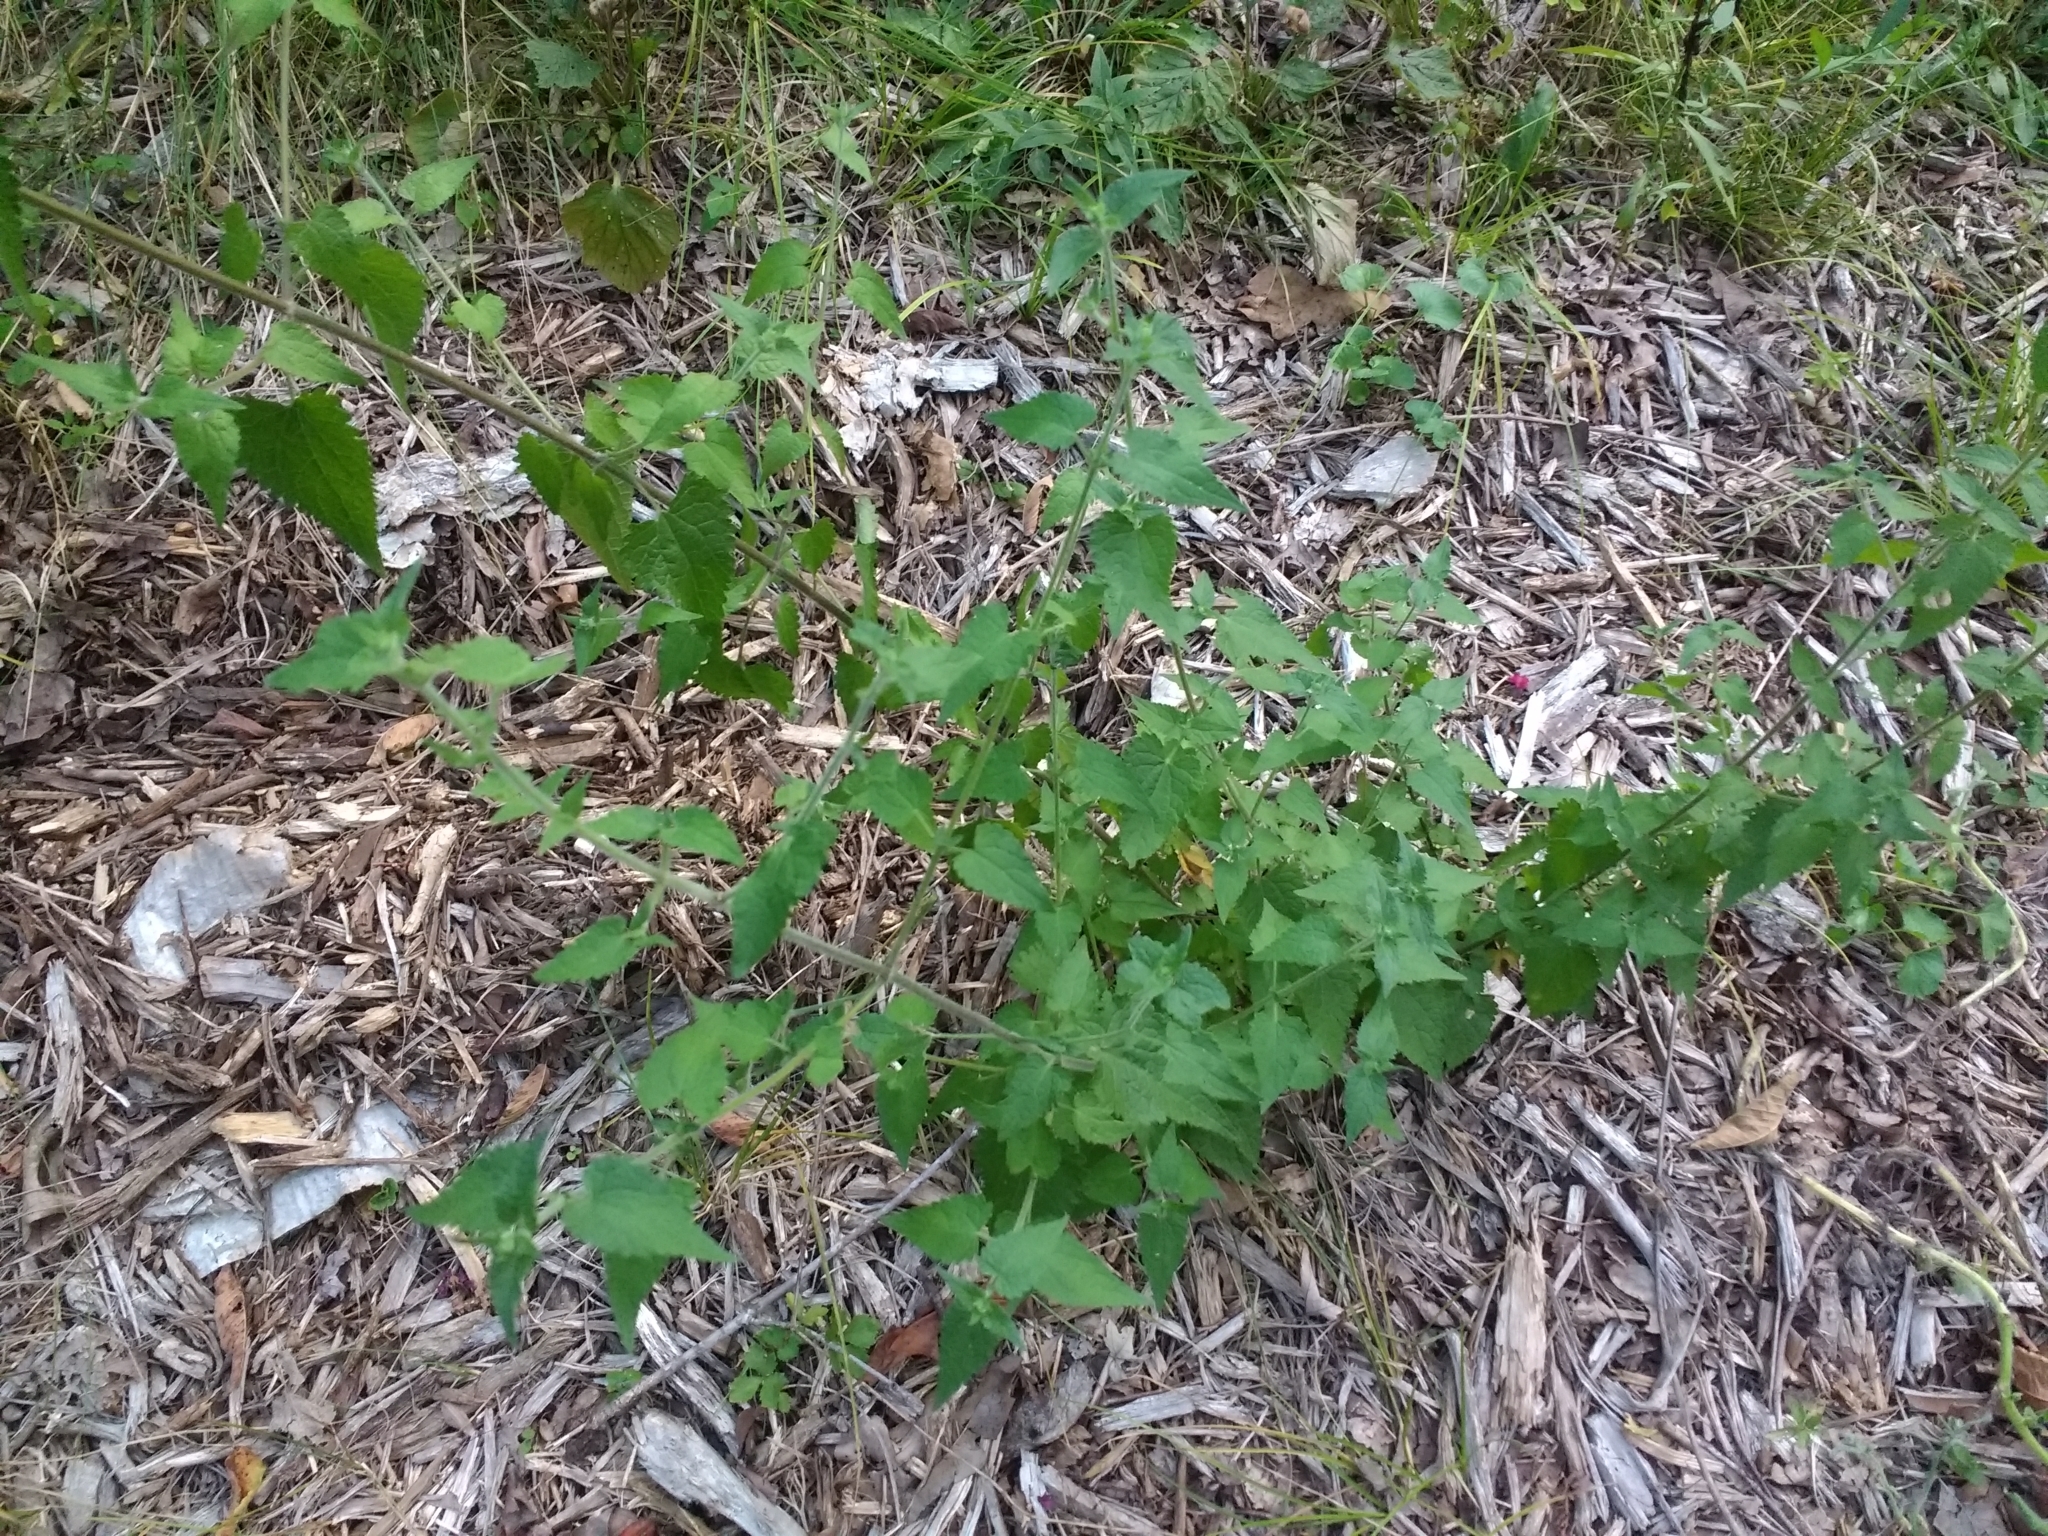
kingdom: Plantae
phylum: Tracheophyta
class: Magnoliopsida
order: Asterales
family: Asteraceae
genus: Fleischmannia
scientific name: Fleischmannia incarnata
